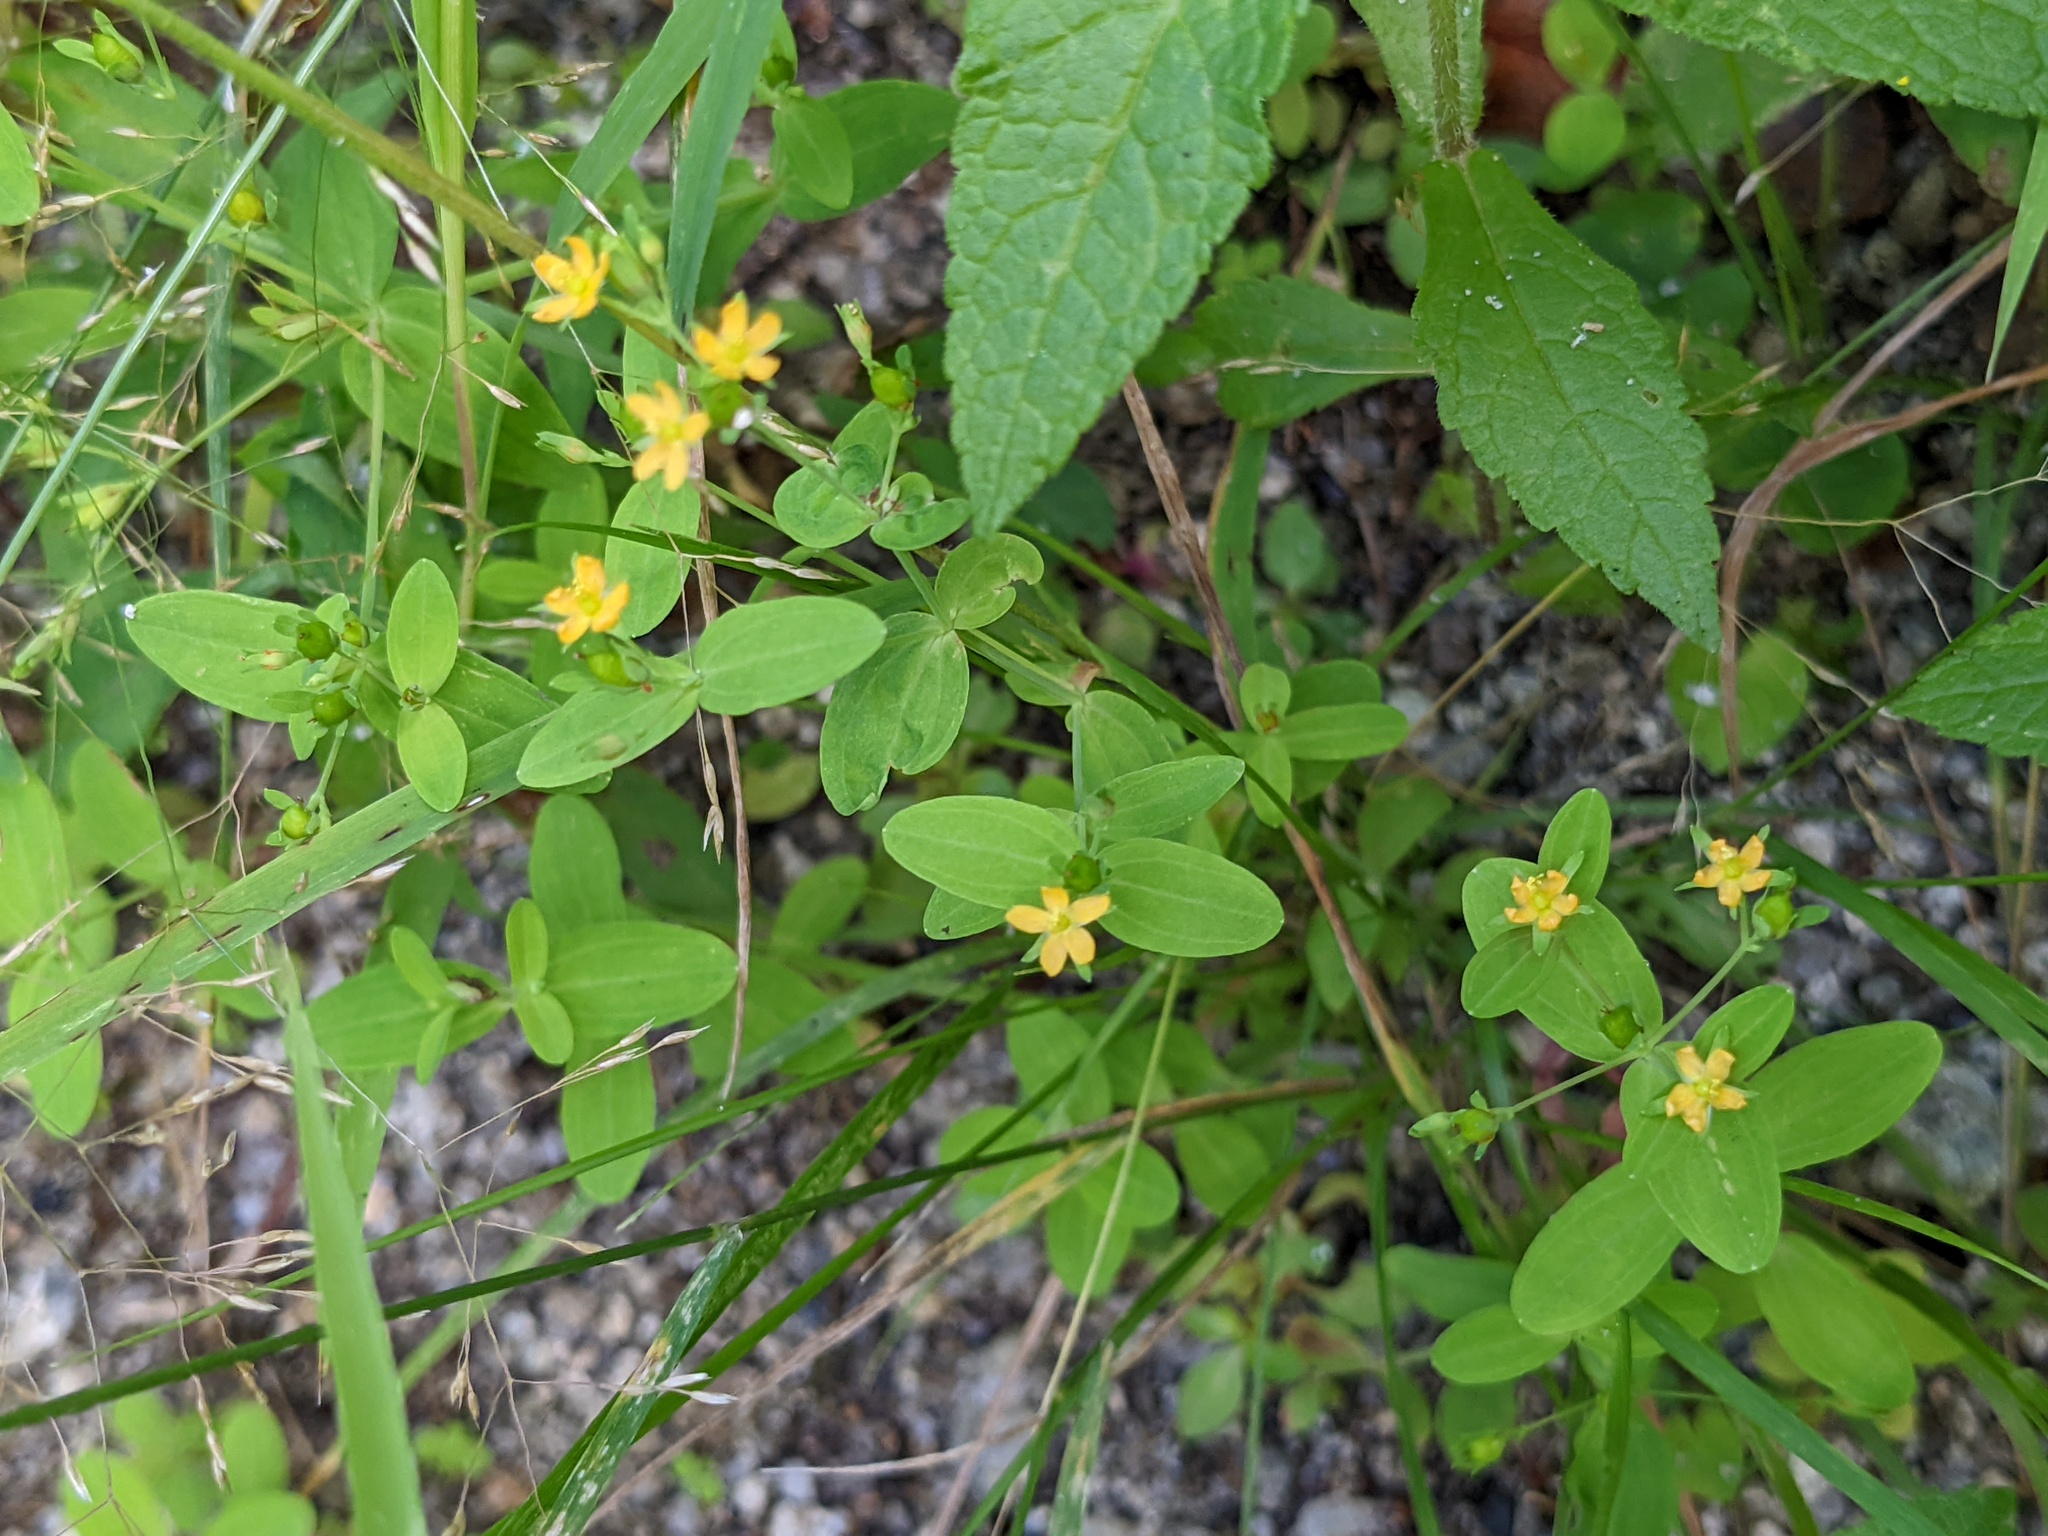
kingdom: Plantae
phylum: Tracheophyta
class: Magnoliopsida
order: Malpighiales
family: Hypericaceae
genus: Hypericum
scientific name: Hypericum mutilum
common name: Dwarf st. john's-wort
